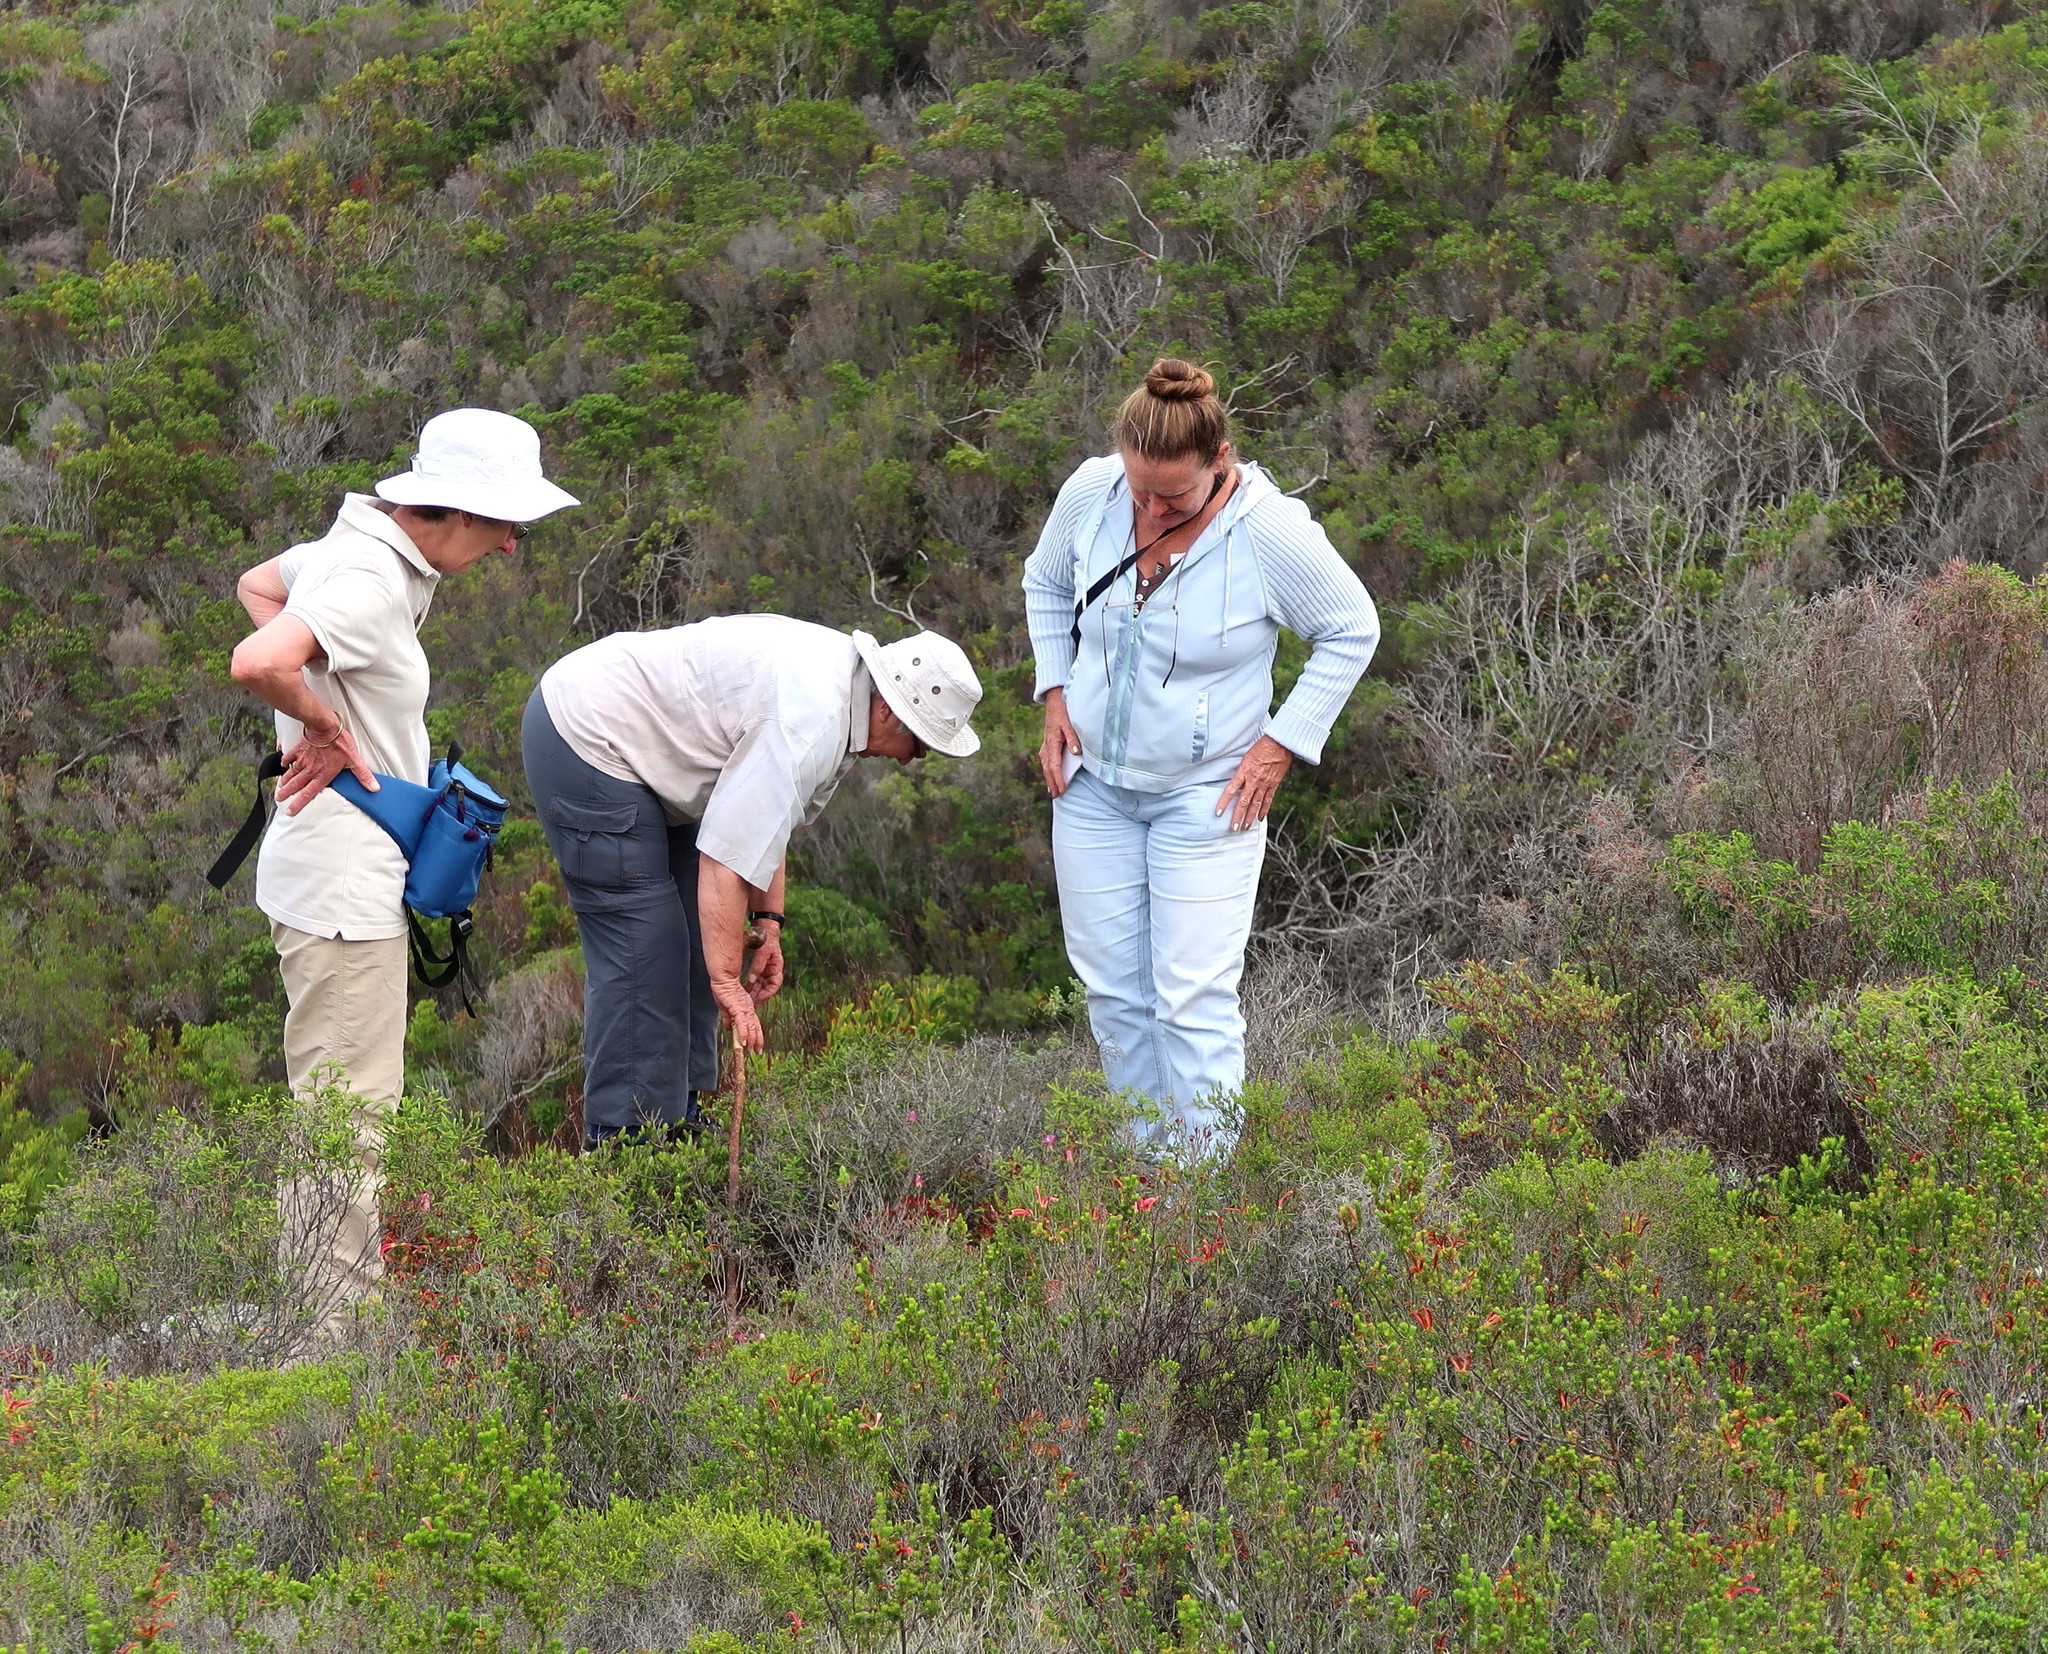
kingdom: Plantae
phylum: Tracheophyta
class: Magnoliopsida
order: Ericales
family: Ericaceae
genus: Erica
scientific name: Erica discolor
